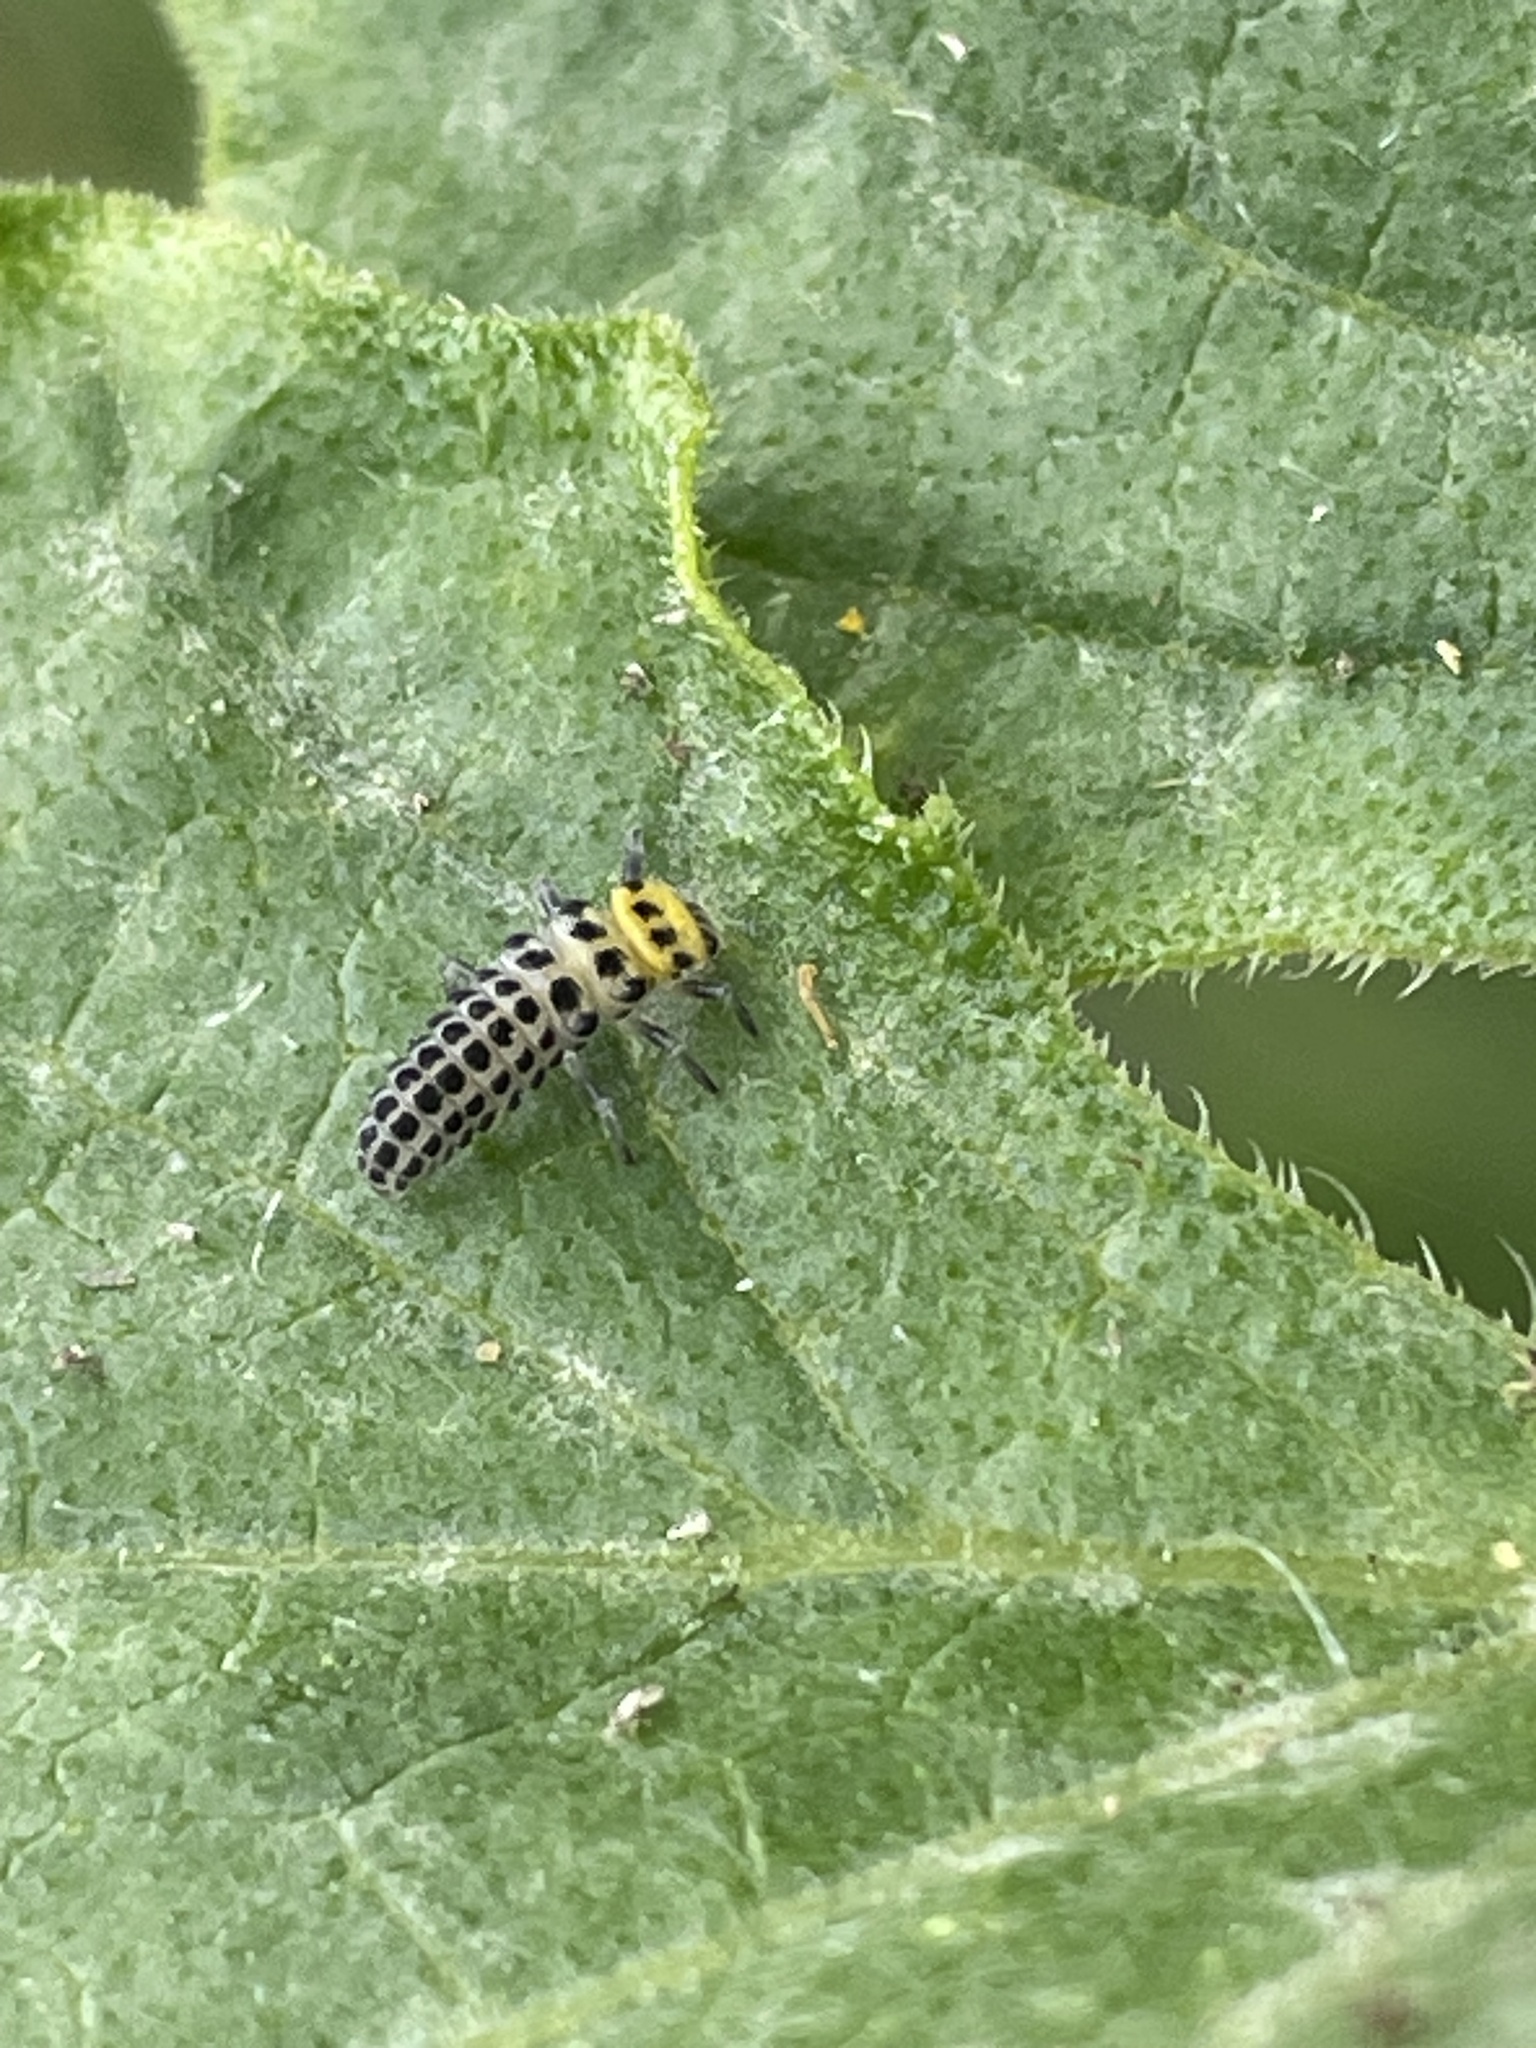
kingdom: Animalia
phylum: Arthropoda
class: Insecta
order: Coleoptera
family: Coccinellidae
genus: Illeis
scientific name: Illeis galbula
